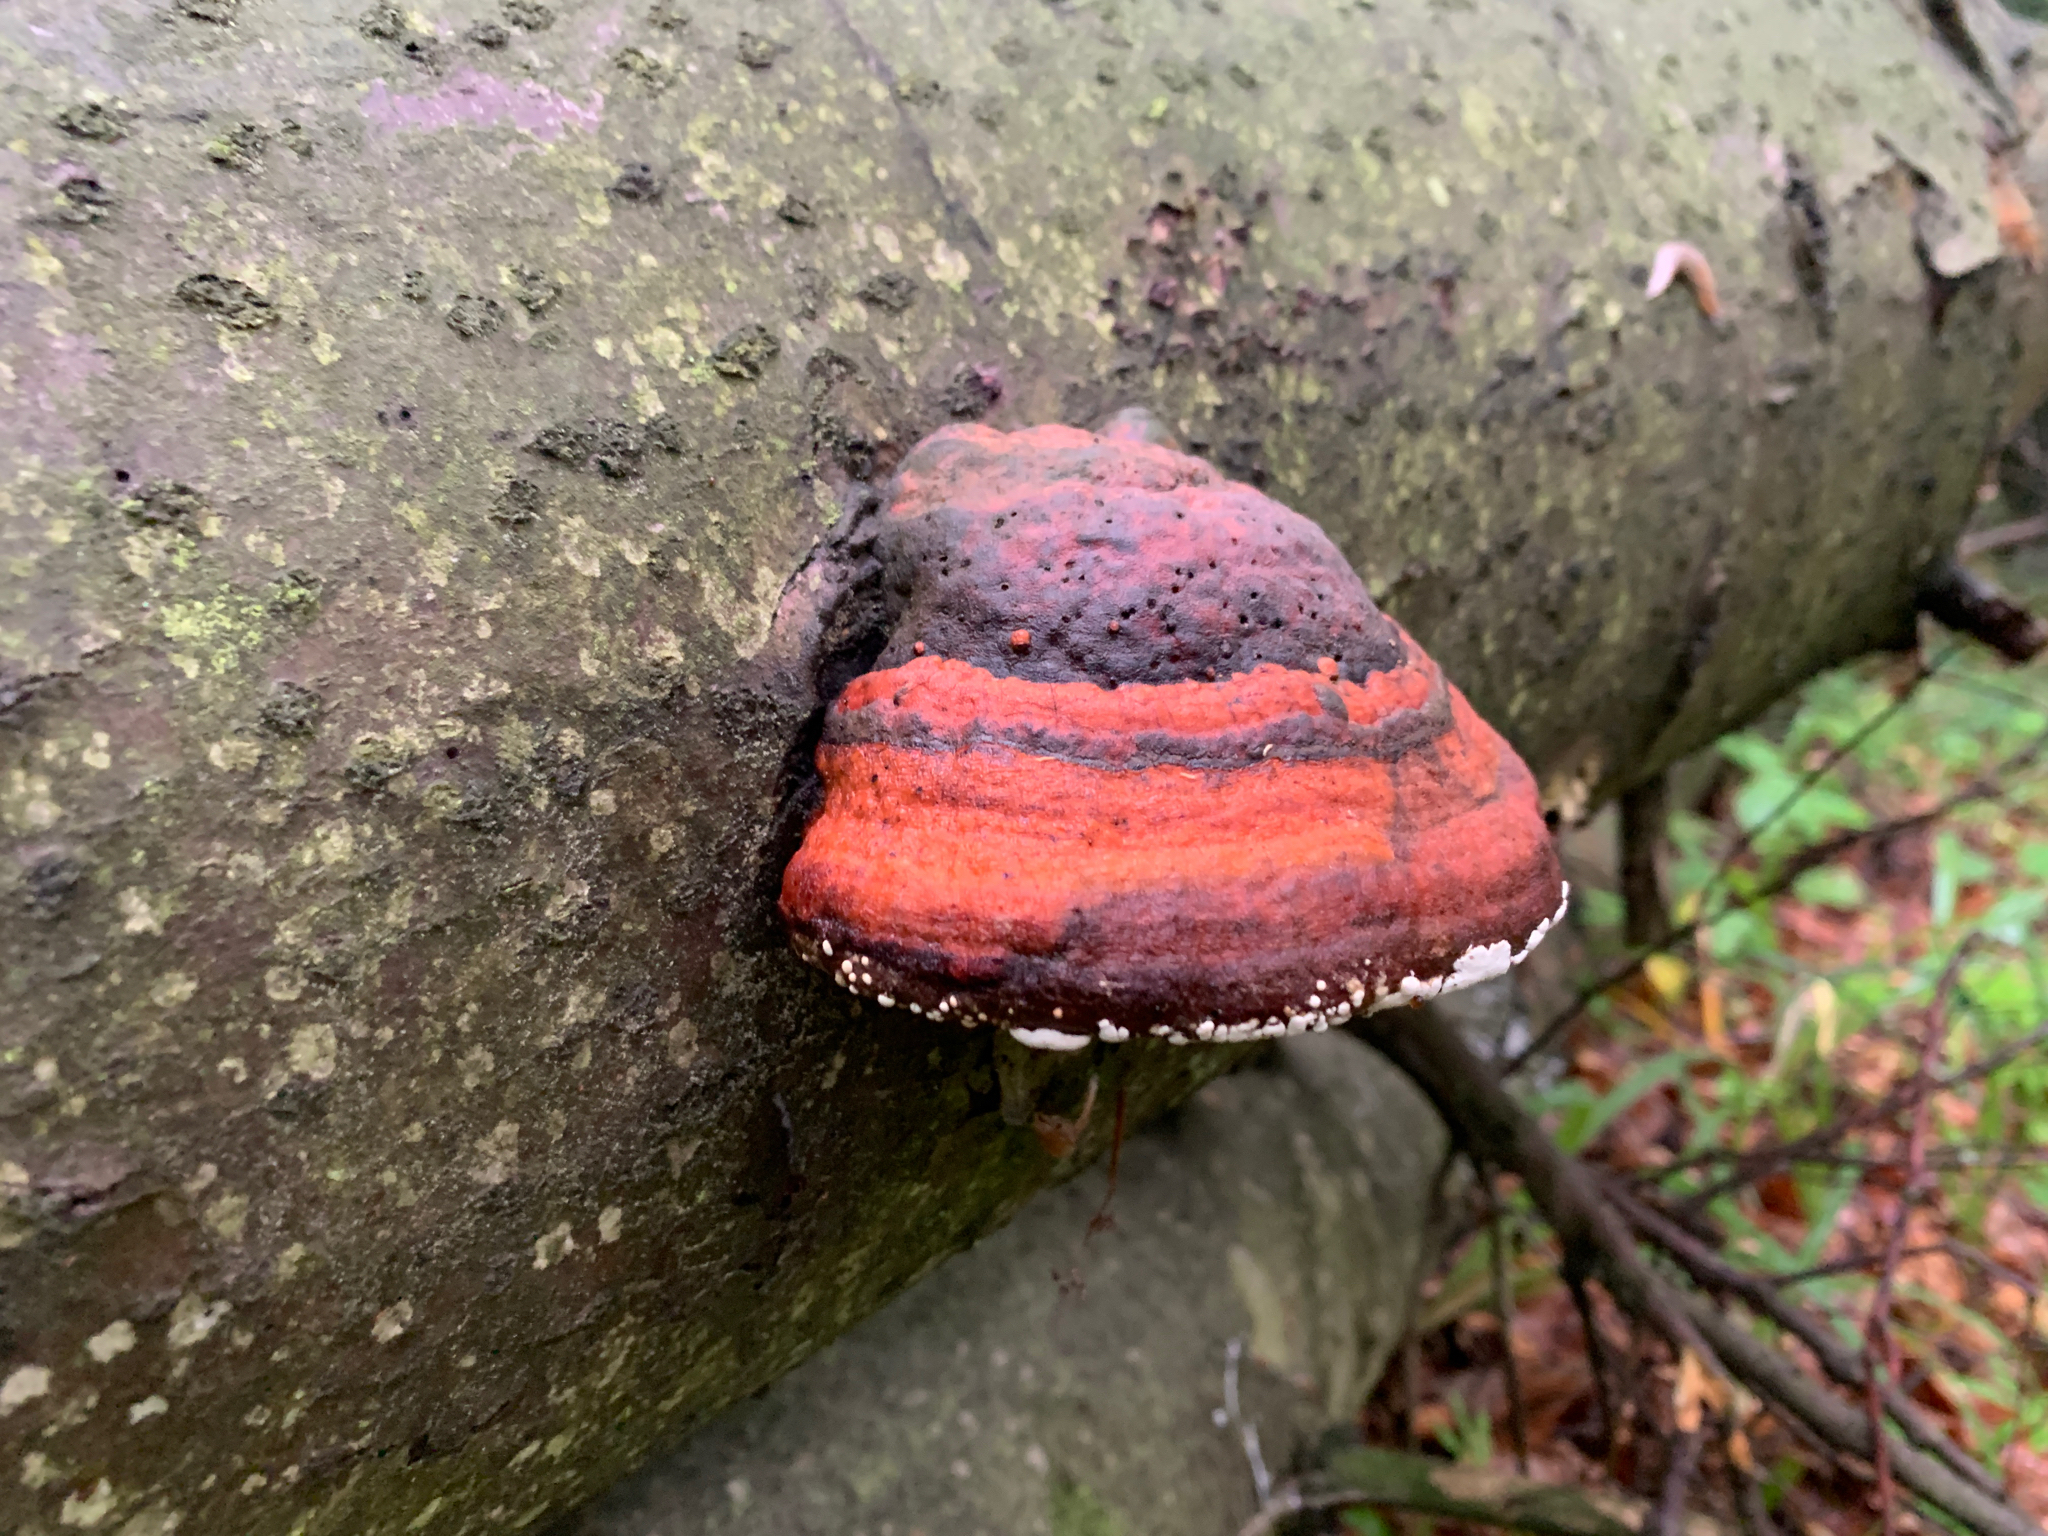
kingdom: Fungi
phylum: Basidiomycota
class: Agaricomycetes
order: Polyporales
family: Fomitopsidaceae
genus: Fomitopsis
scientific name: Fomitopsis pinicola
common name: Red-belted bracket
